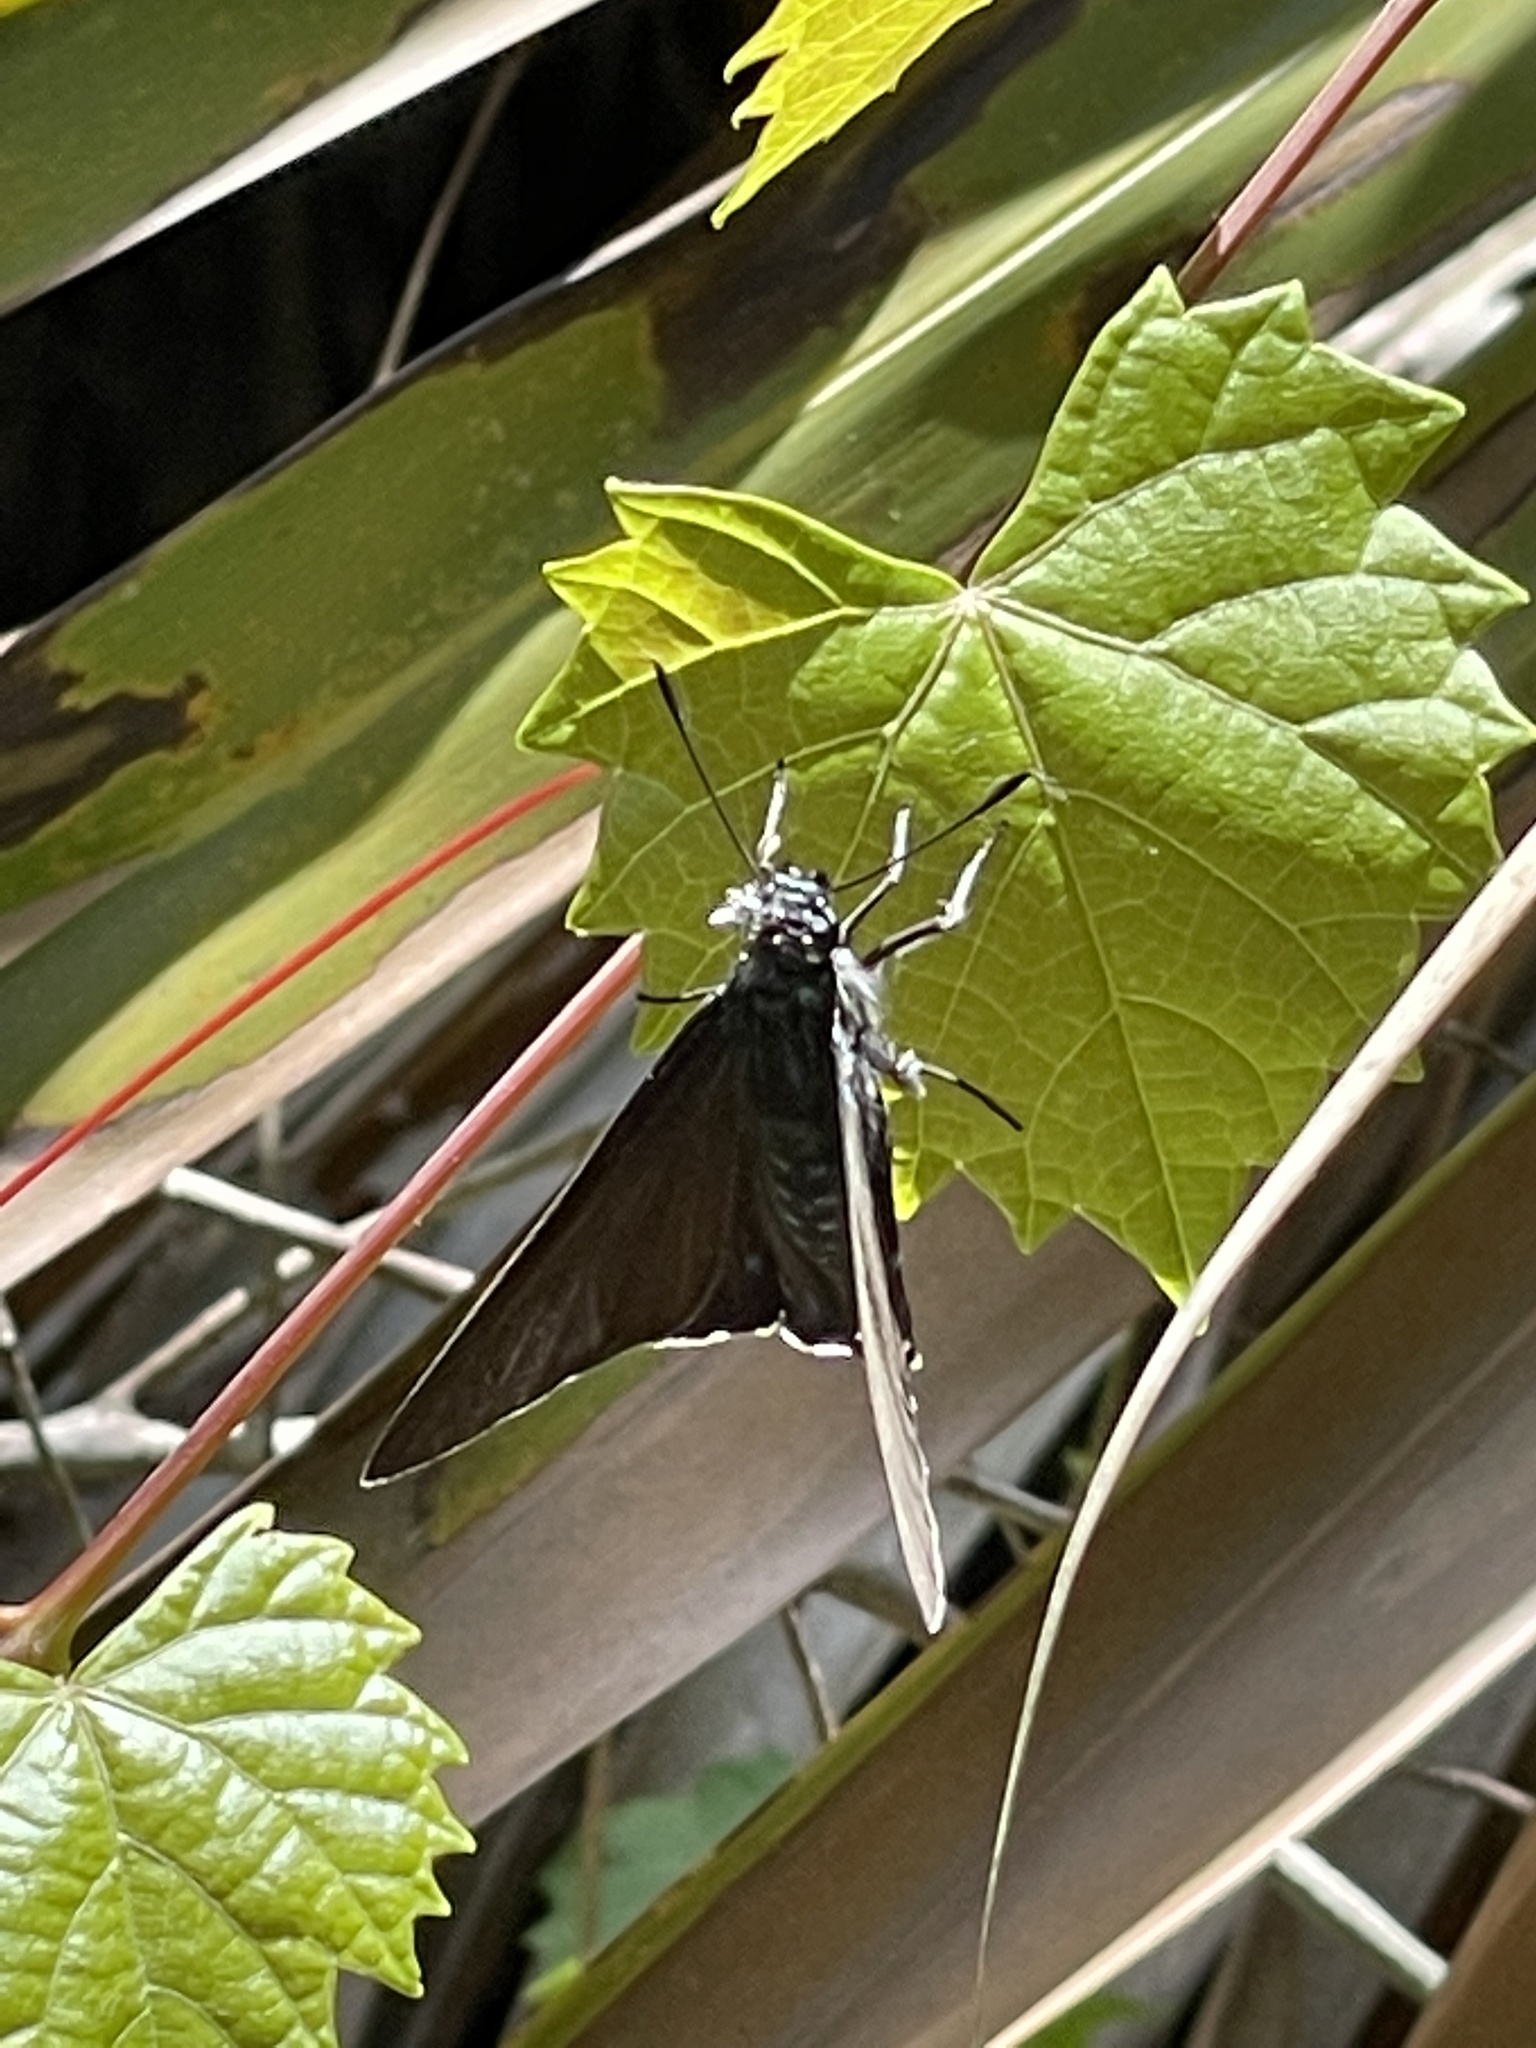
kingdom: Animalia
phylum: Arthropoda
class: Insecta
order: Lepidoptera
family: Hesperiidae
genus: Phocides
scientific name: Phocides pigmalion
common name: Mangrove skipper
